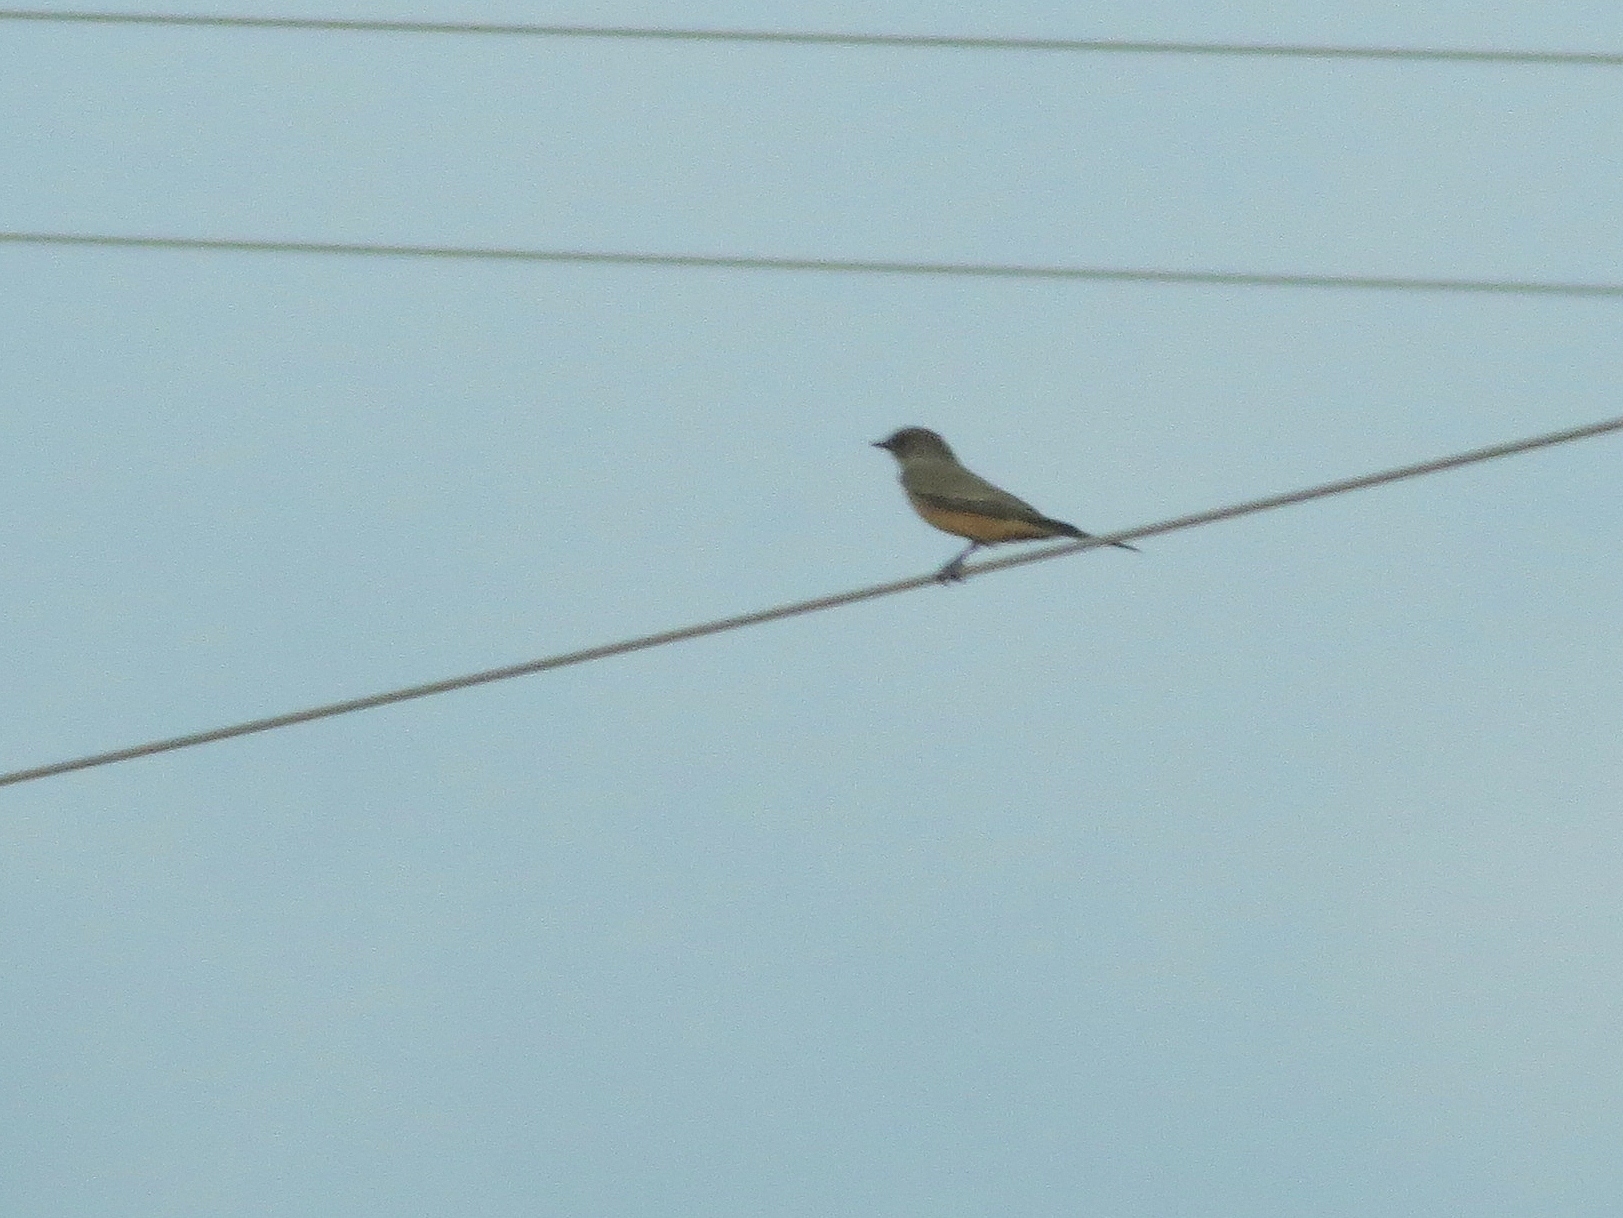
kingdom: Animalia
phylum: Chordata
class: Aves
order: Passeriformes
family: Tyrannidae
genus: Sayornis
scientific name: Sayornis saya
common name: Say's phoebe
